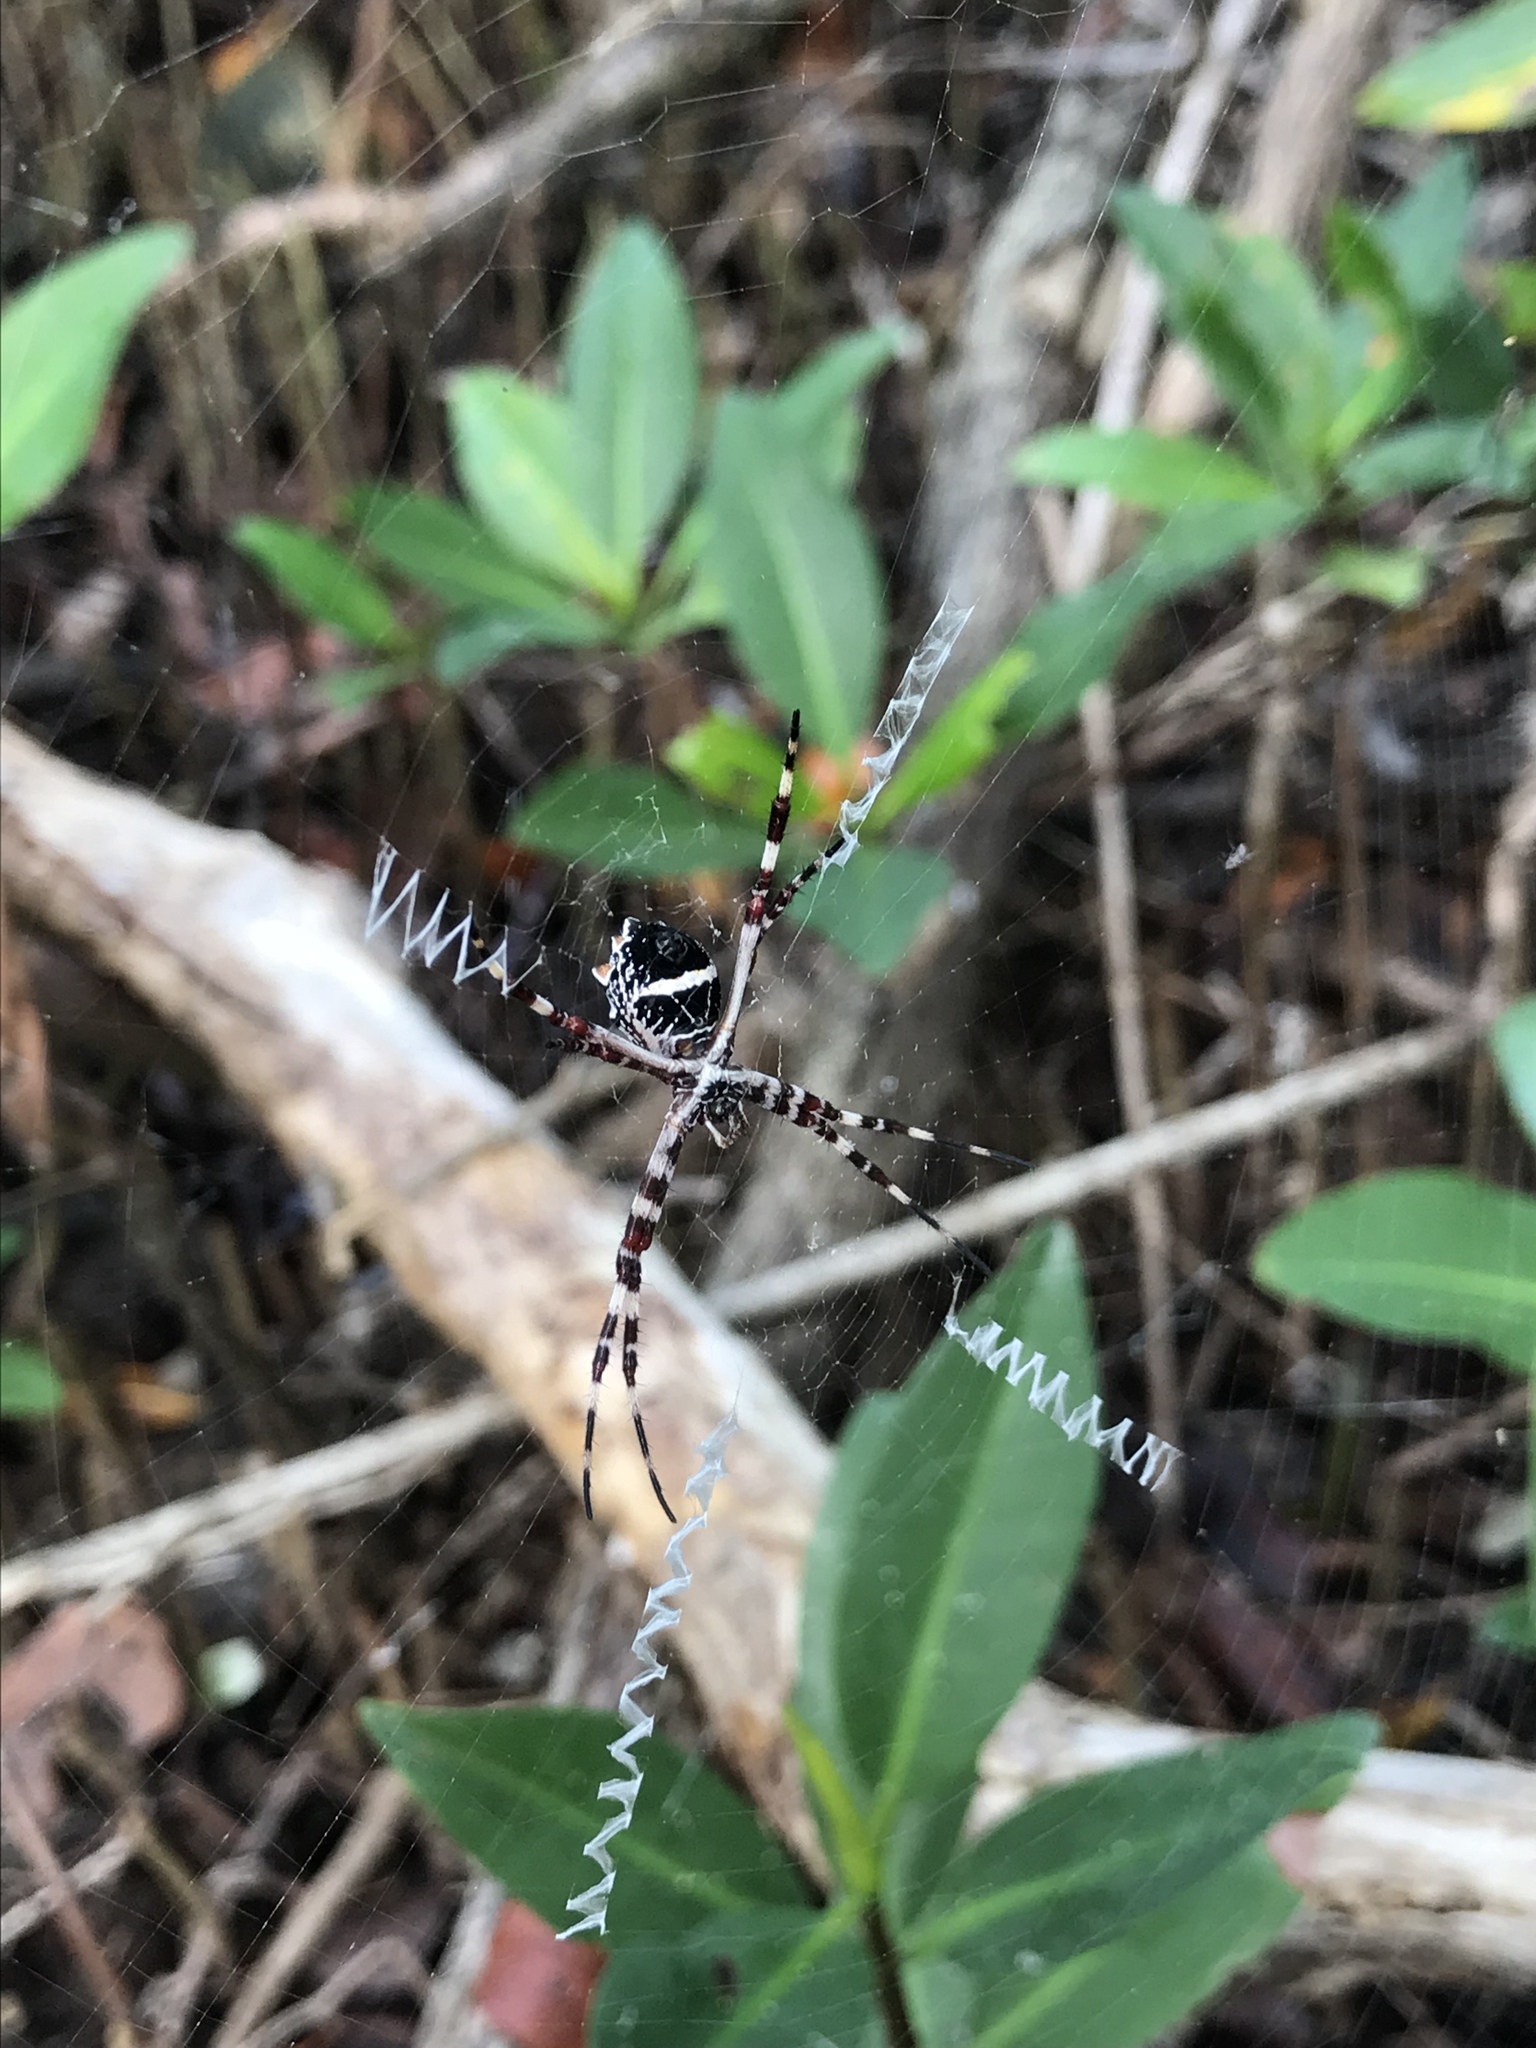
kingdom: Animalia
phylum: Arthropoda
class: Arachnida
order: Araneae
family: Araneidae
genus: Argiope
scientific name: Argiope argentata
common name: Orb weavers
